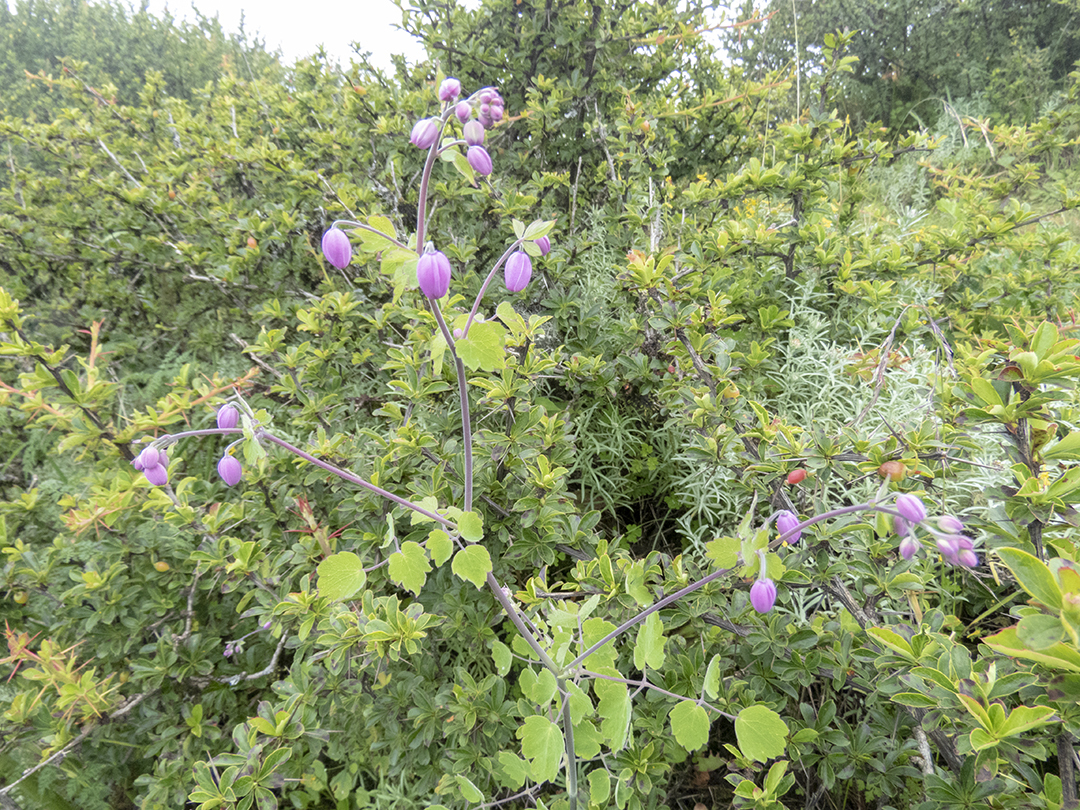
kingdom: Plantae
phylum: Tracheophyta
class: Magnoliopsida
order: Ranunculales
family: Ranunculaceae
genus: Thalictrum
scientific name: Thalictrum reniforme
